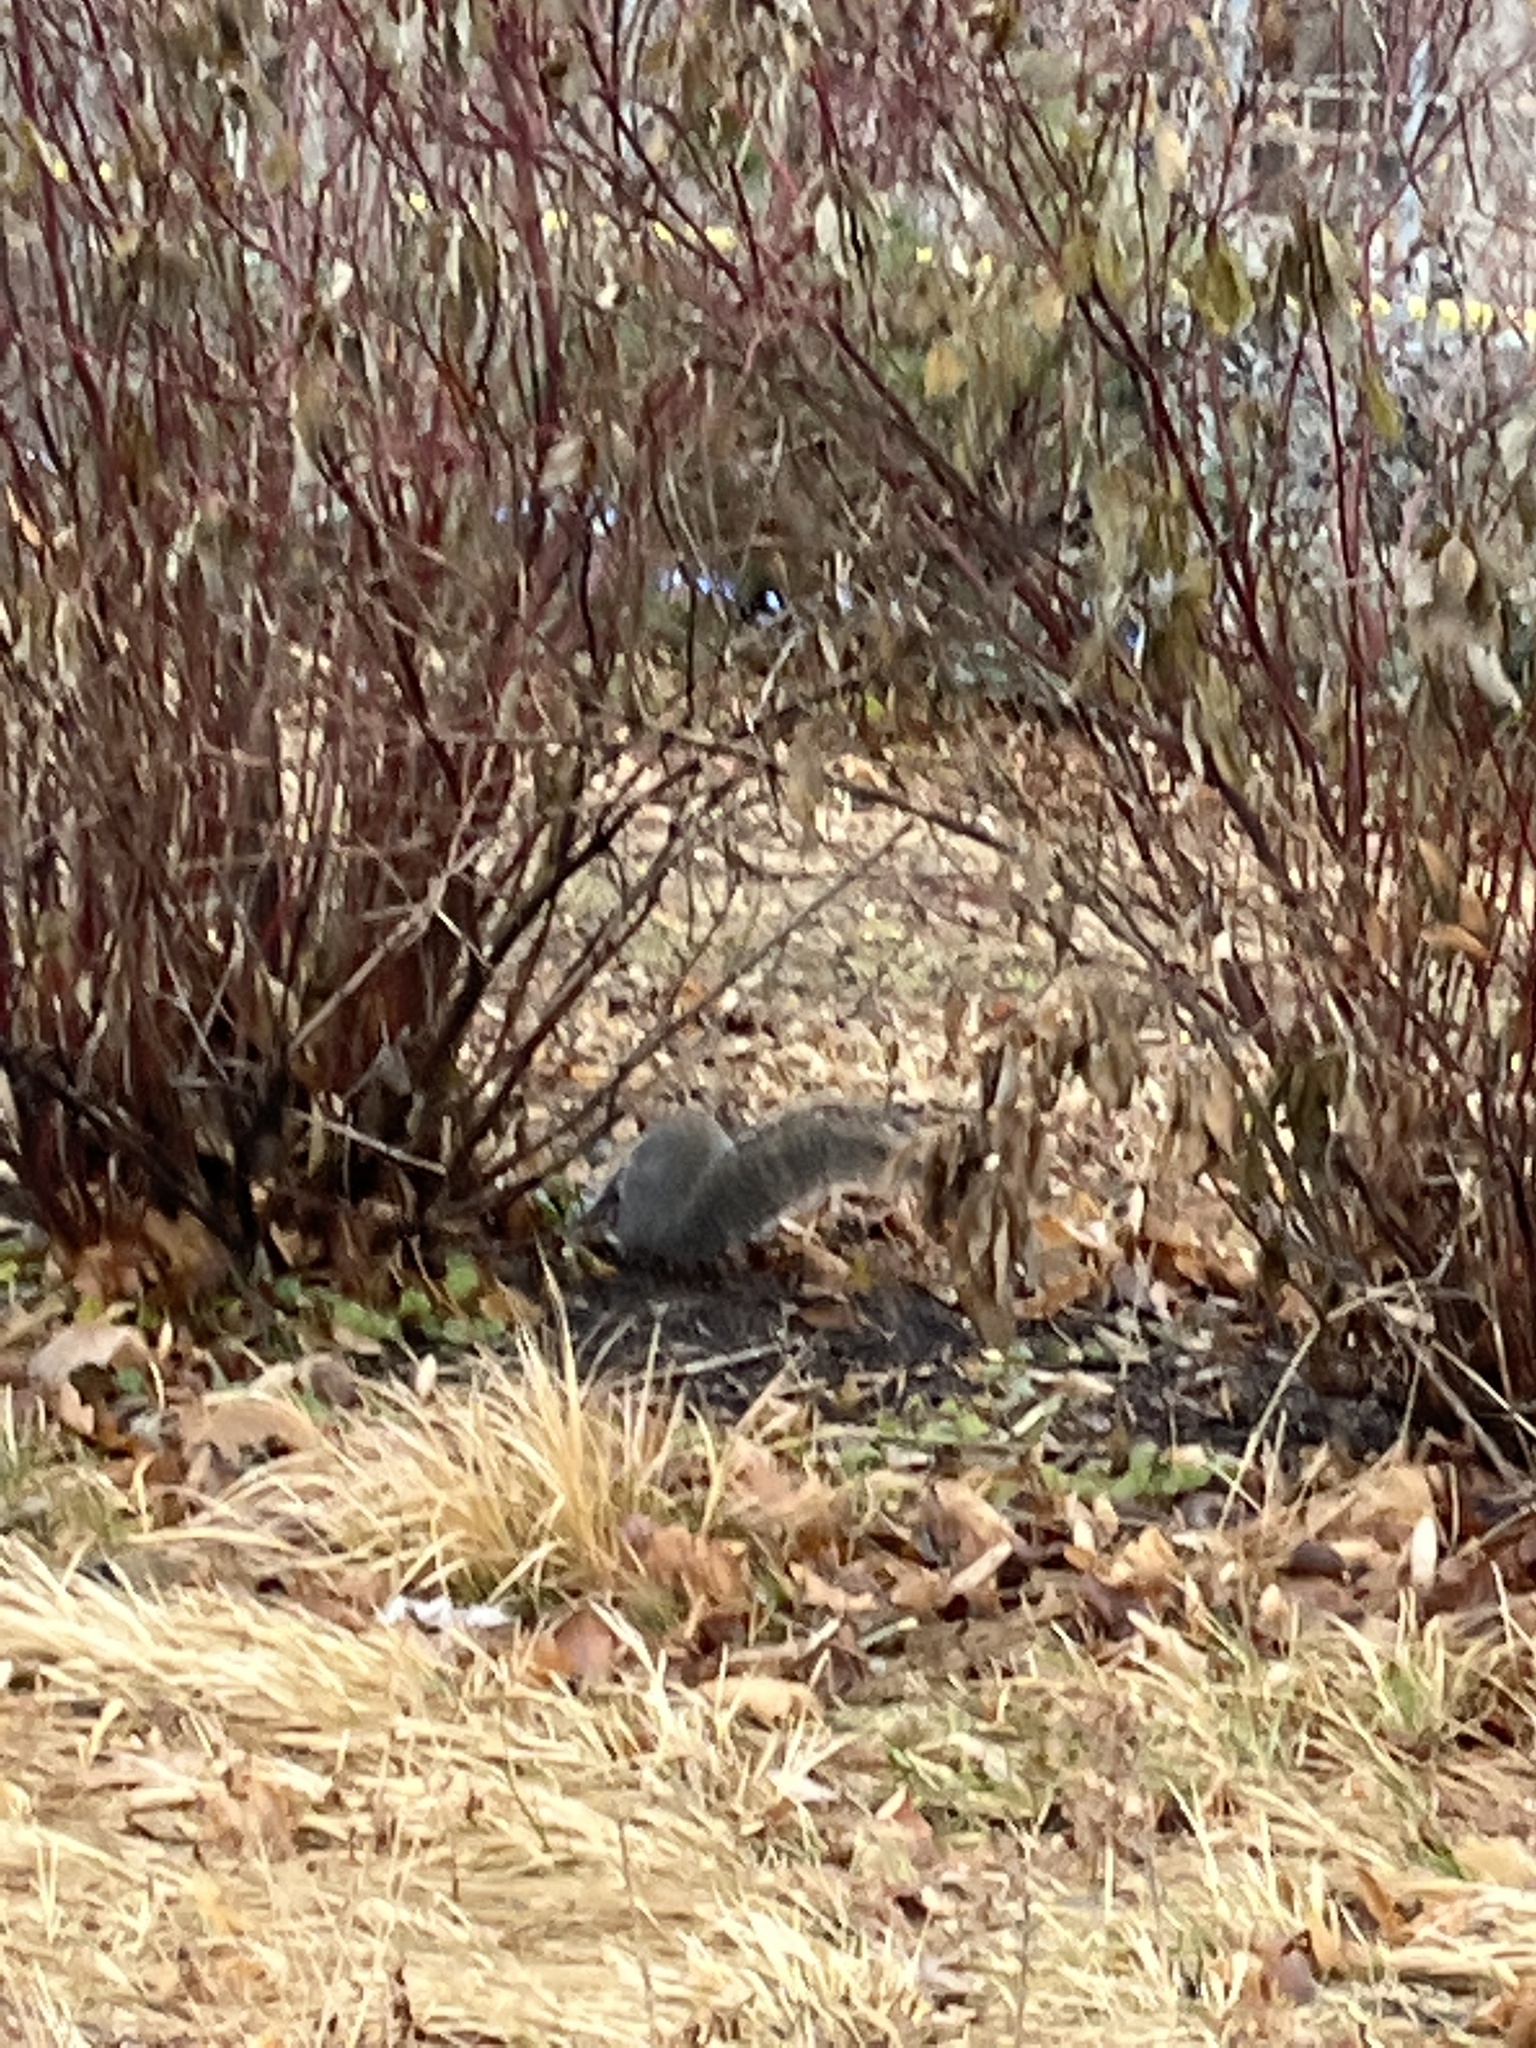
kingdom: Animalia
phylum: Chordata
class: Mammalia
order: Rodentia
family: Sciuridae
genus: Sciurus
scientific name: Sciurus carolinensis
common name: Eastern gray squirrel
